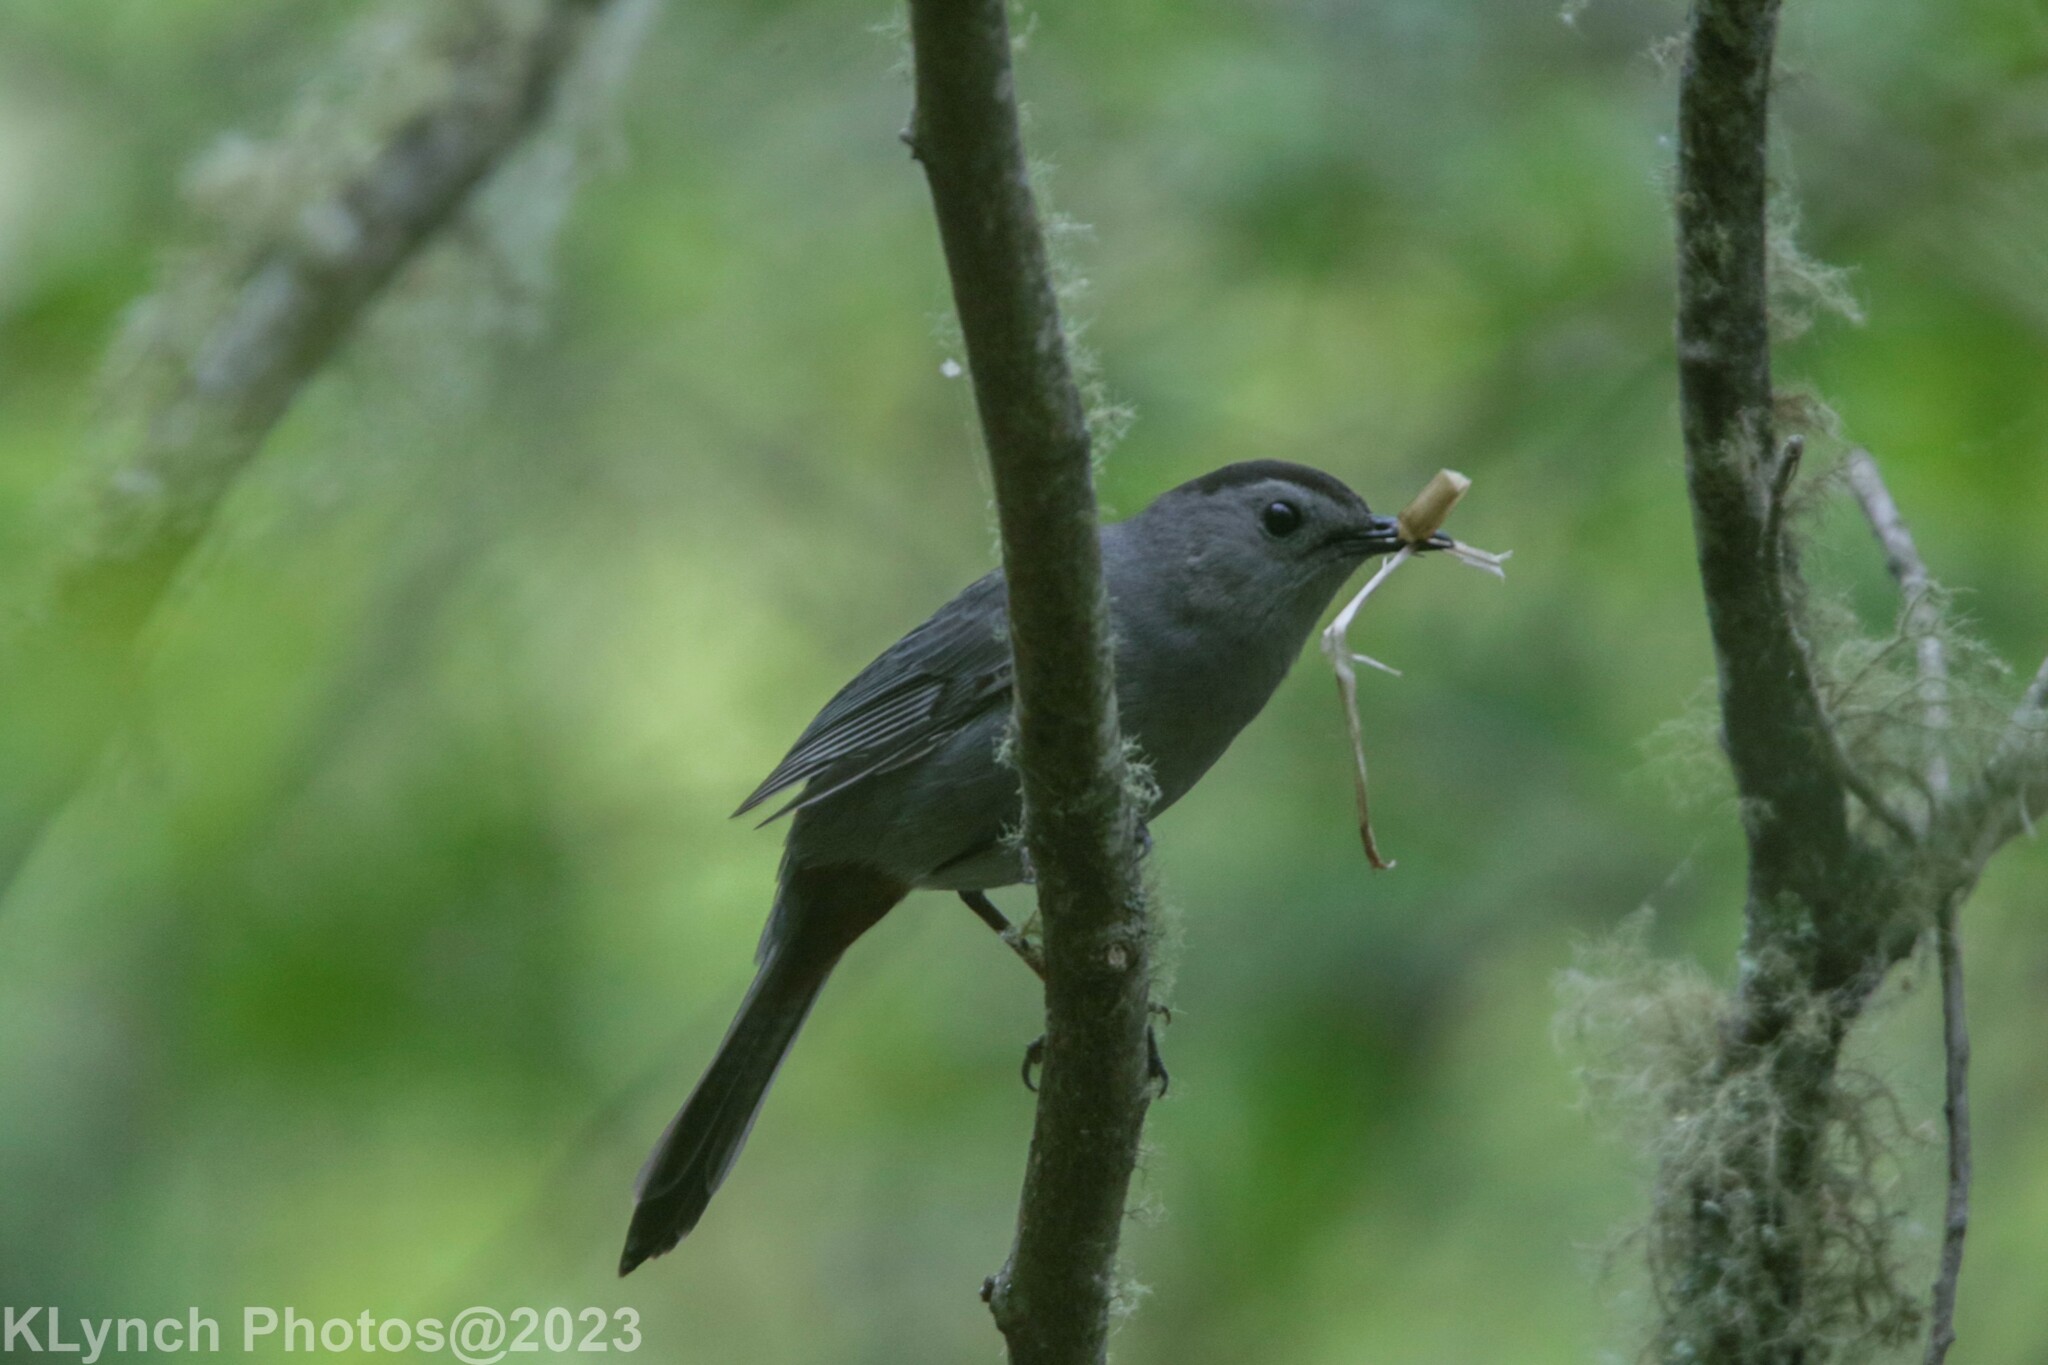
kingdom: Animalia
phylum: Chordata
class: Aves
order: Passeriformes
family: Mimidae
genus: Dumetella
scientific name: Dumetella carolinensis
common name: Gray catbird
